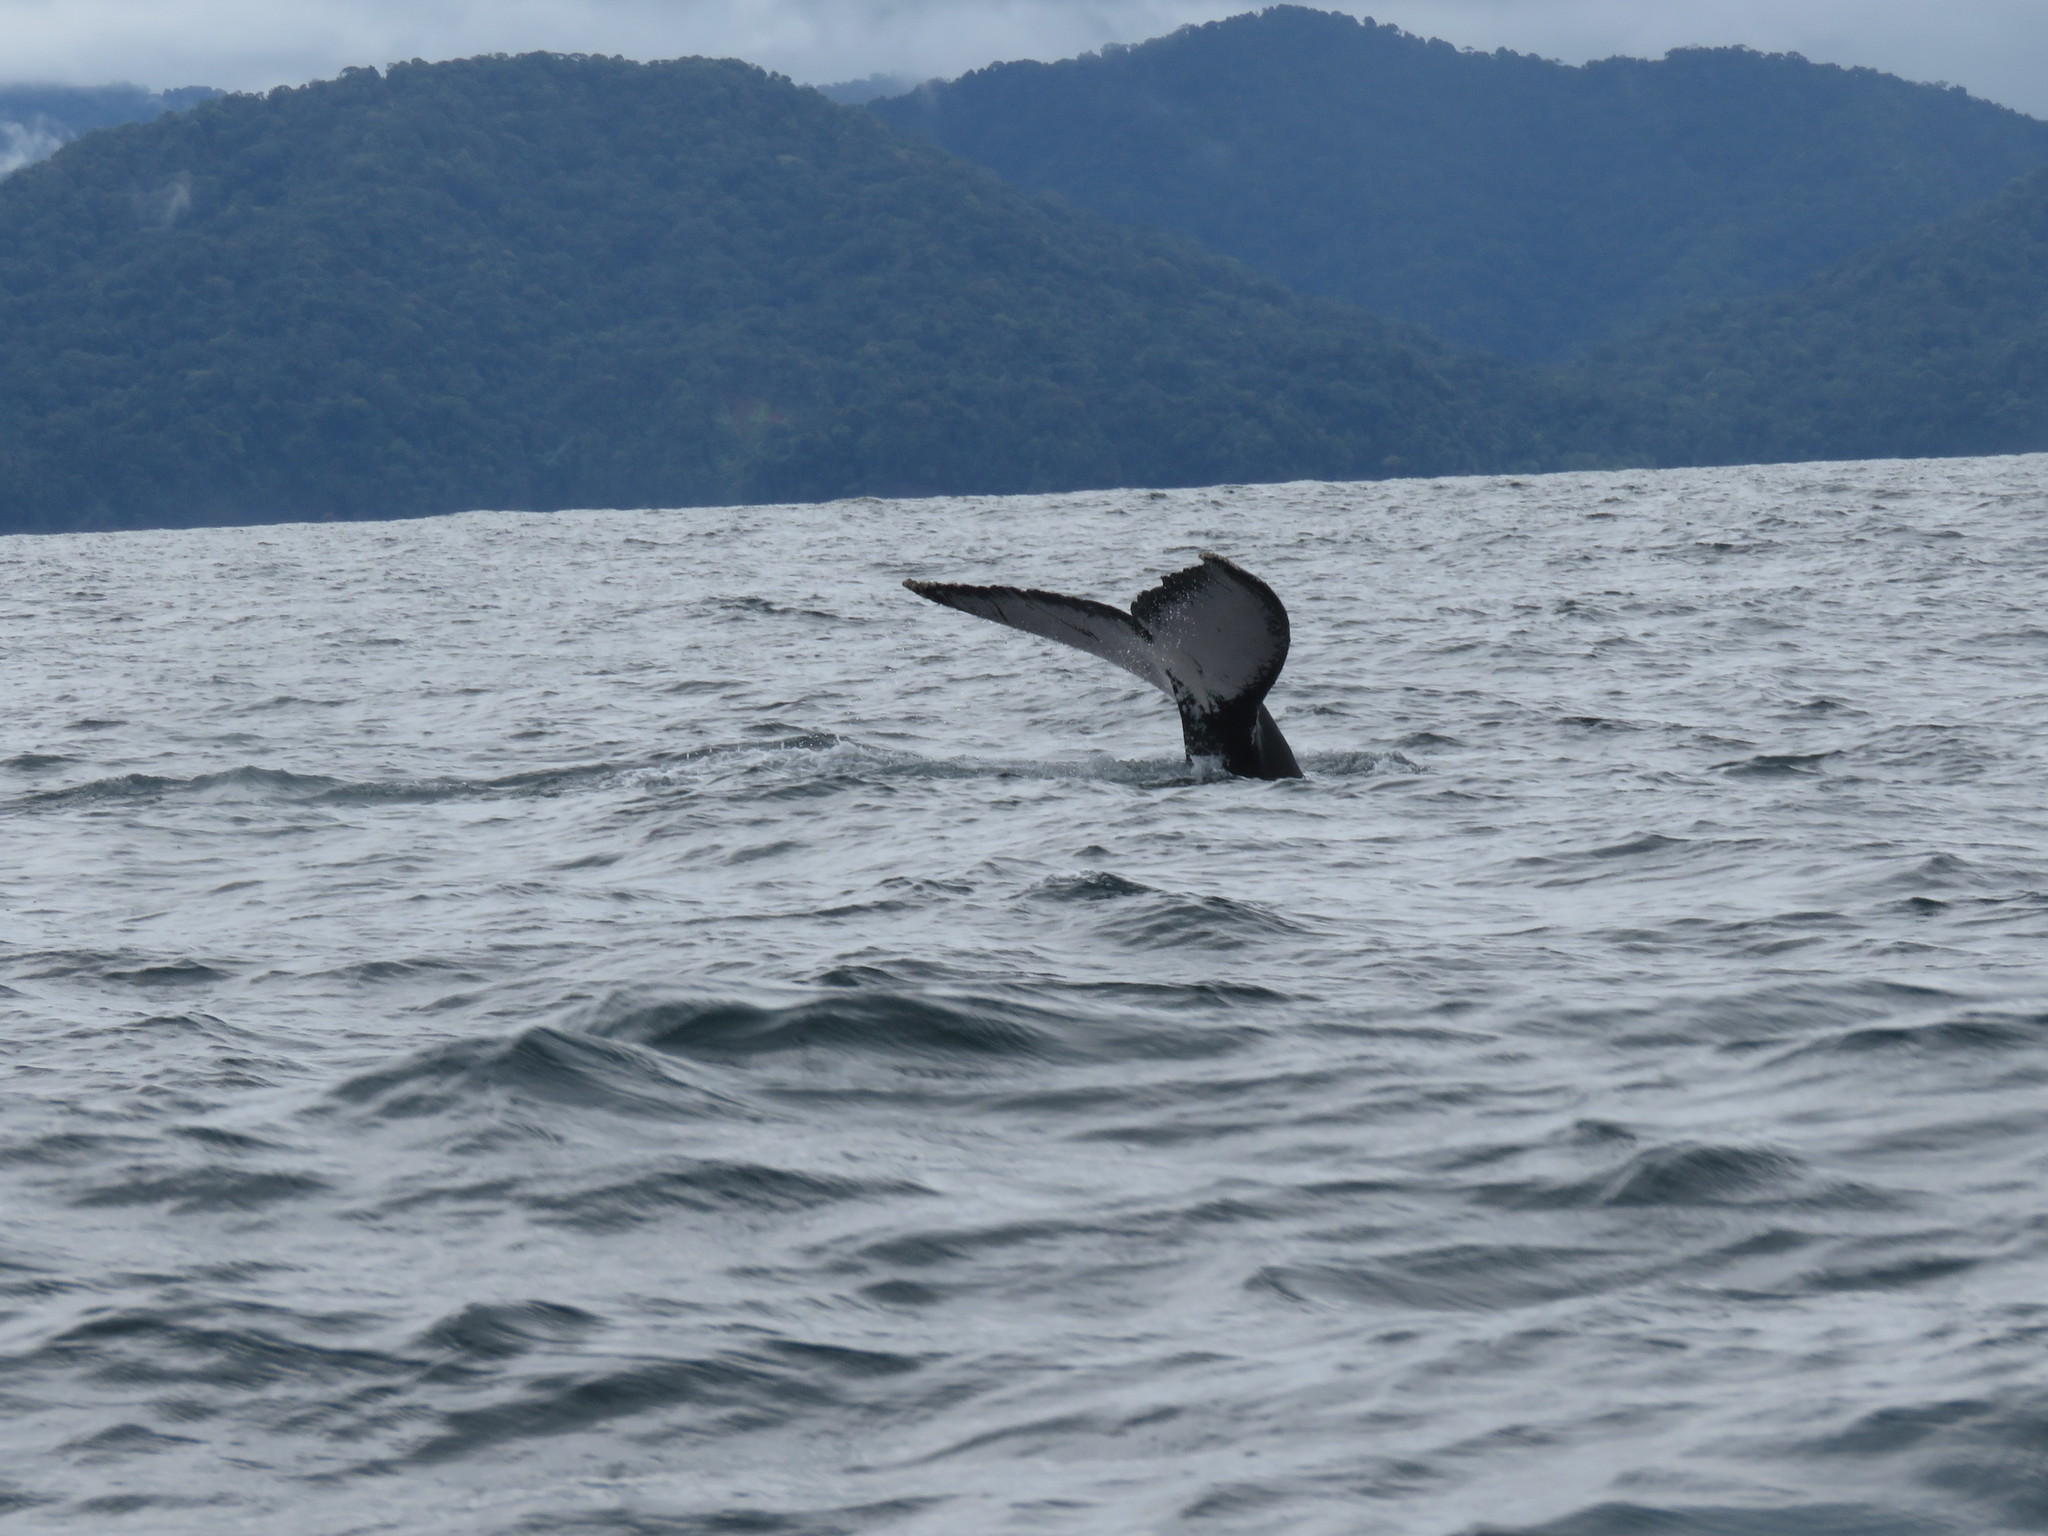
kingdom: Animalia
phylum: Chordata
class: Mammalia
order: Cetacea
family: Balaenopteridae
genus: Megaptera
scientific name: Megaptera novaeangliae
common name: Humpback whale
